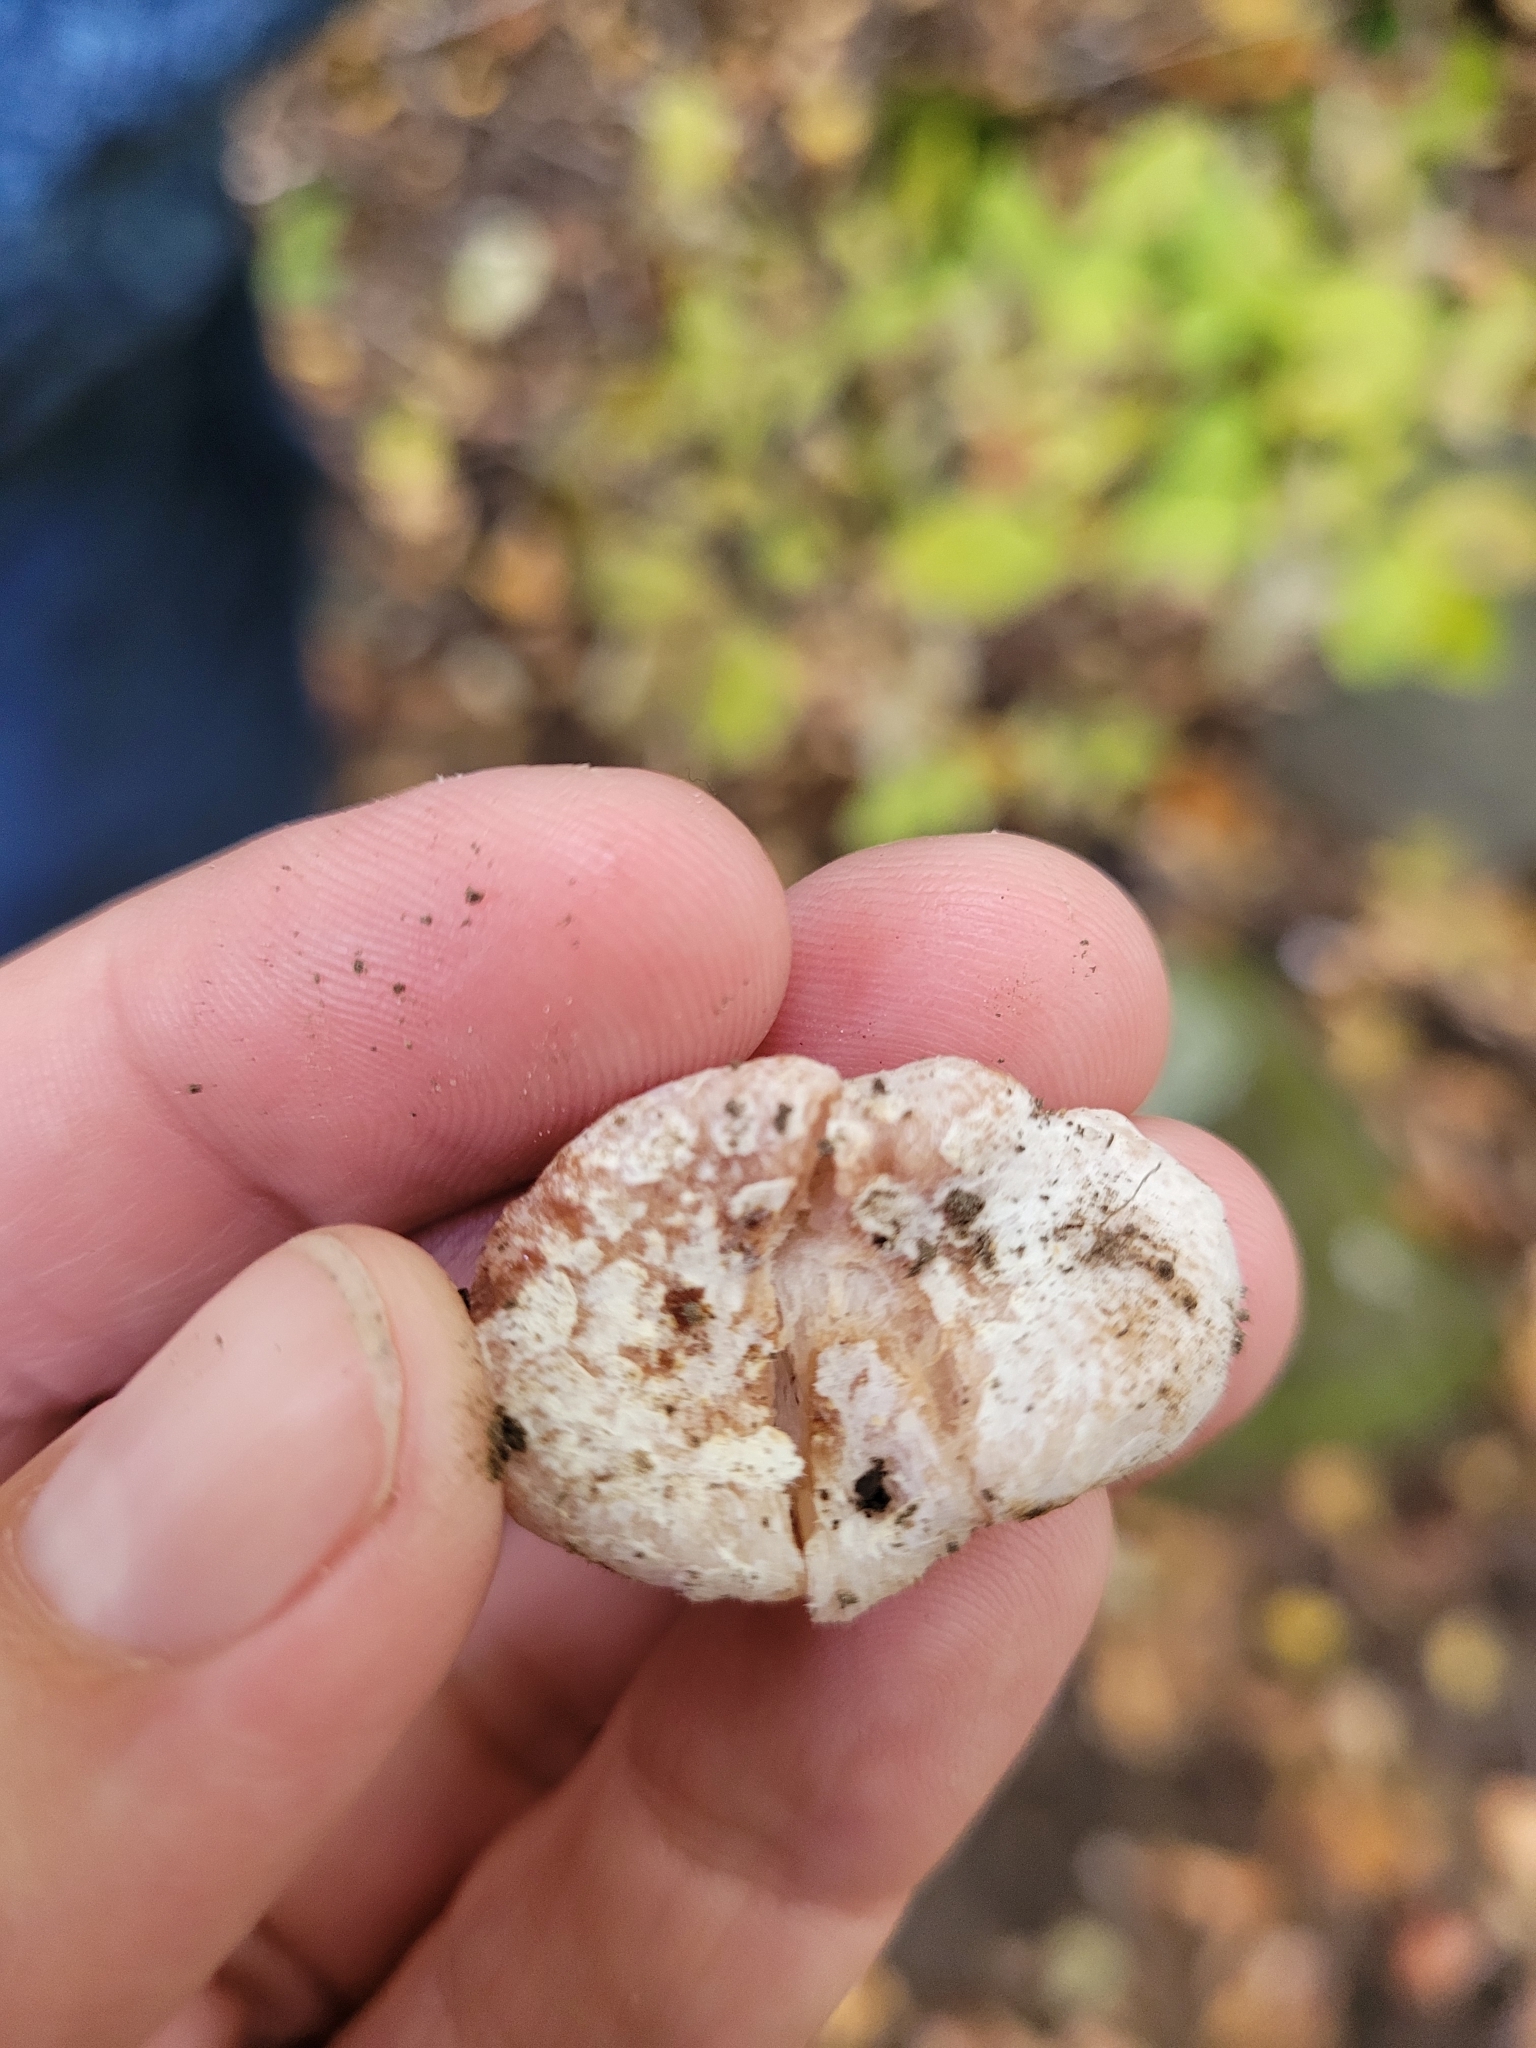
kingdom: Fungi
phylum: Basidiomycota
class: Agaricomycetes
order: Agaricales
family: Entolomataceae
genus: Entoloma
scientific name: Entoloma abortivum
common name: Aborted entoloma
